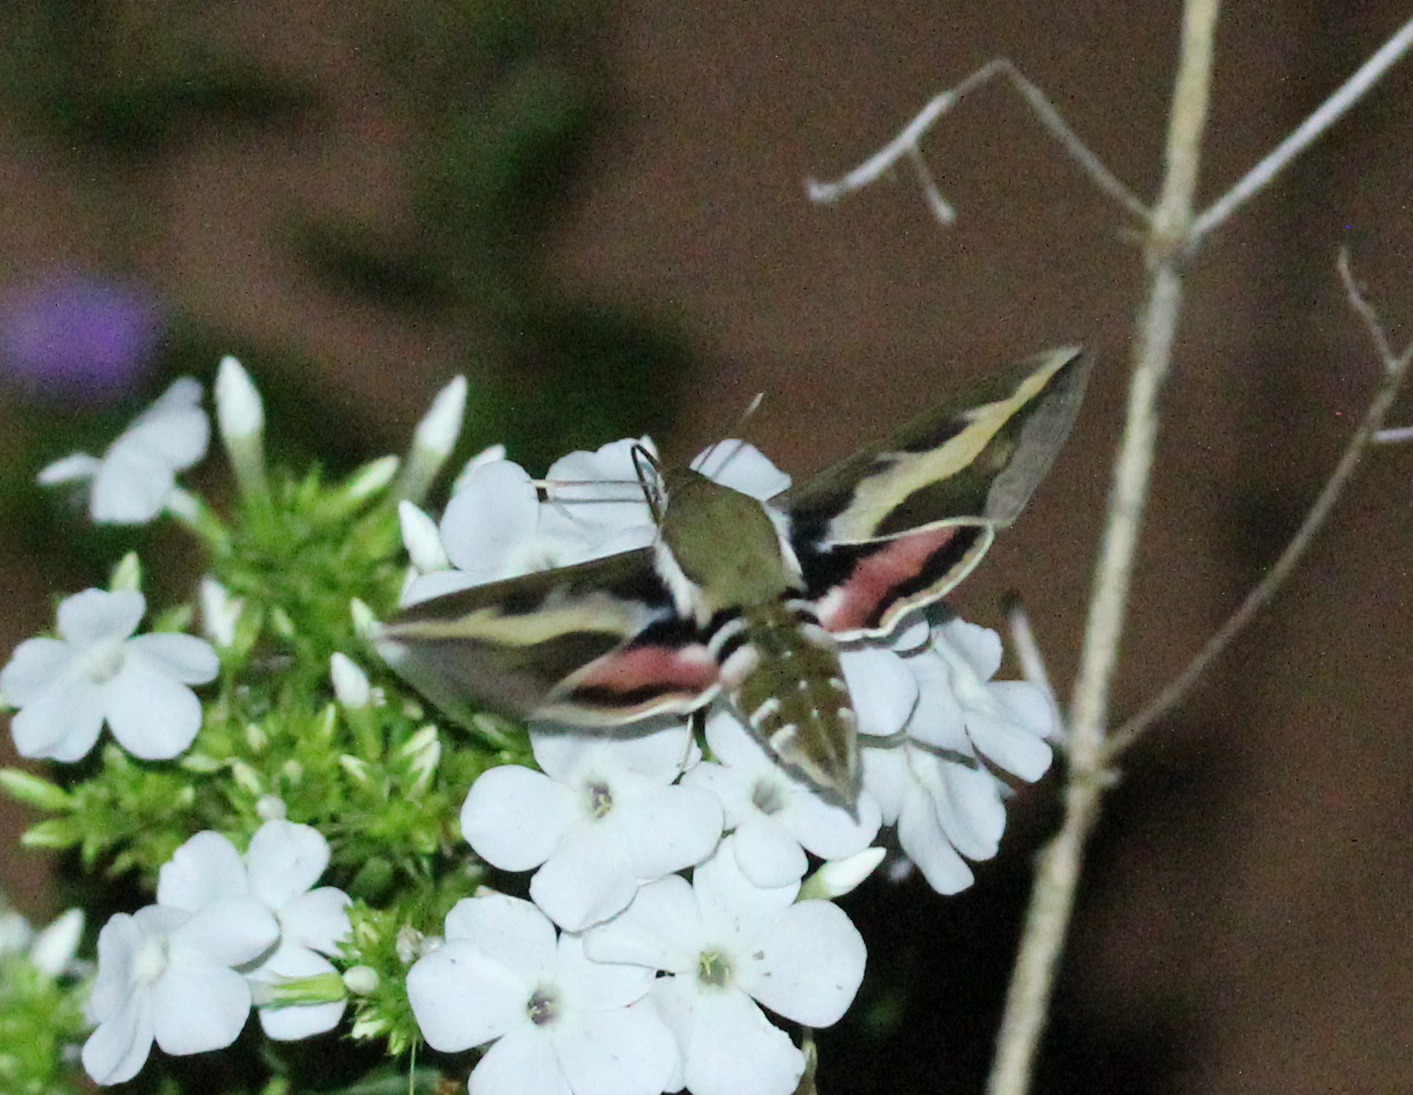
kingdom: Animalia
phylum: Arthropoda
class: Insecta
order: Lepidoptera
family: Sphingidae
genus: Hyles
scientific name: Hyles gallii
